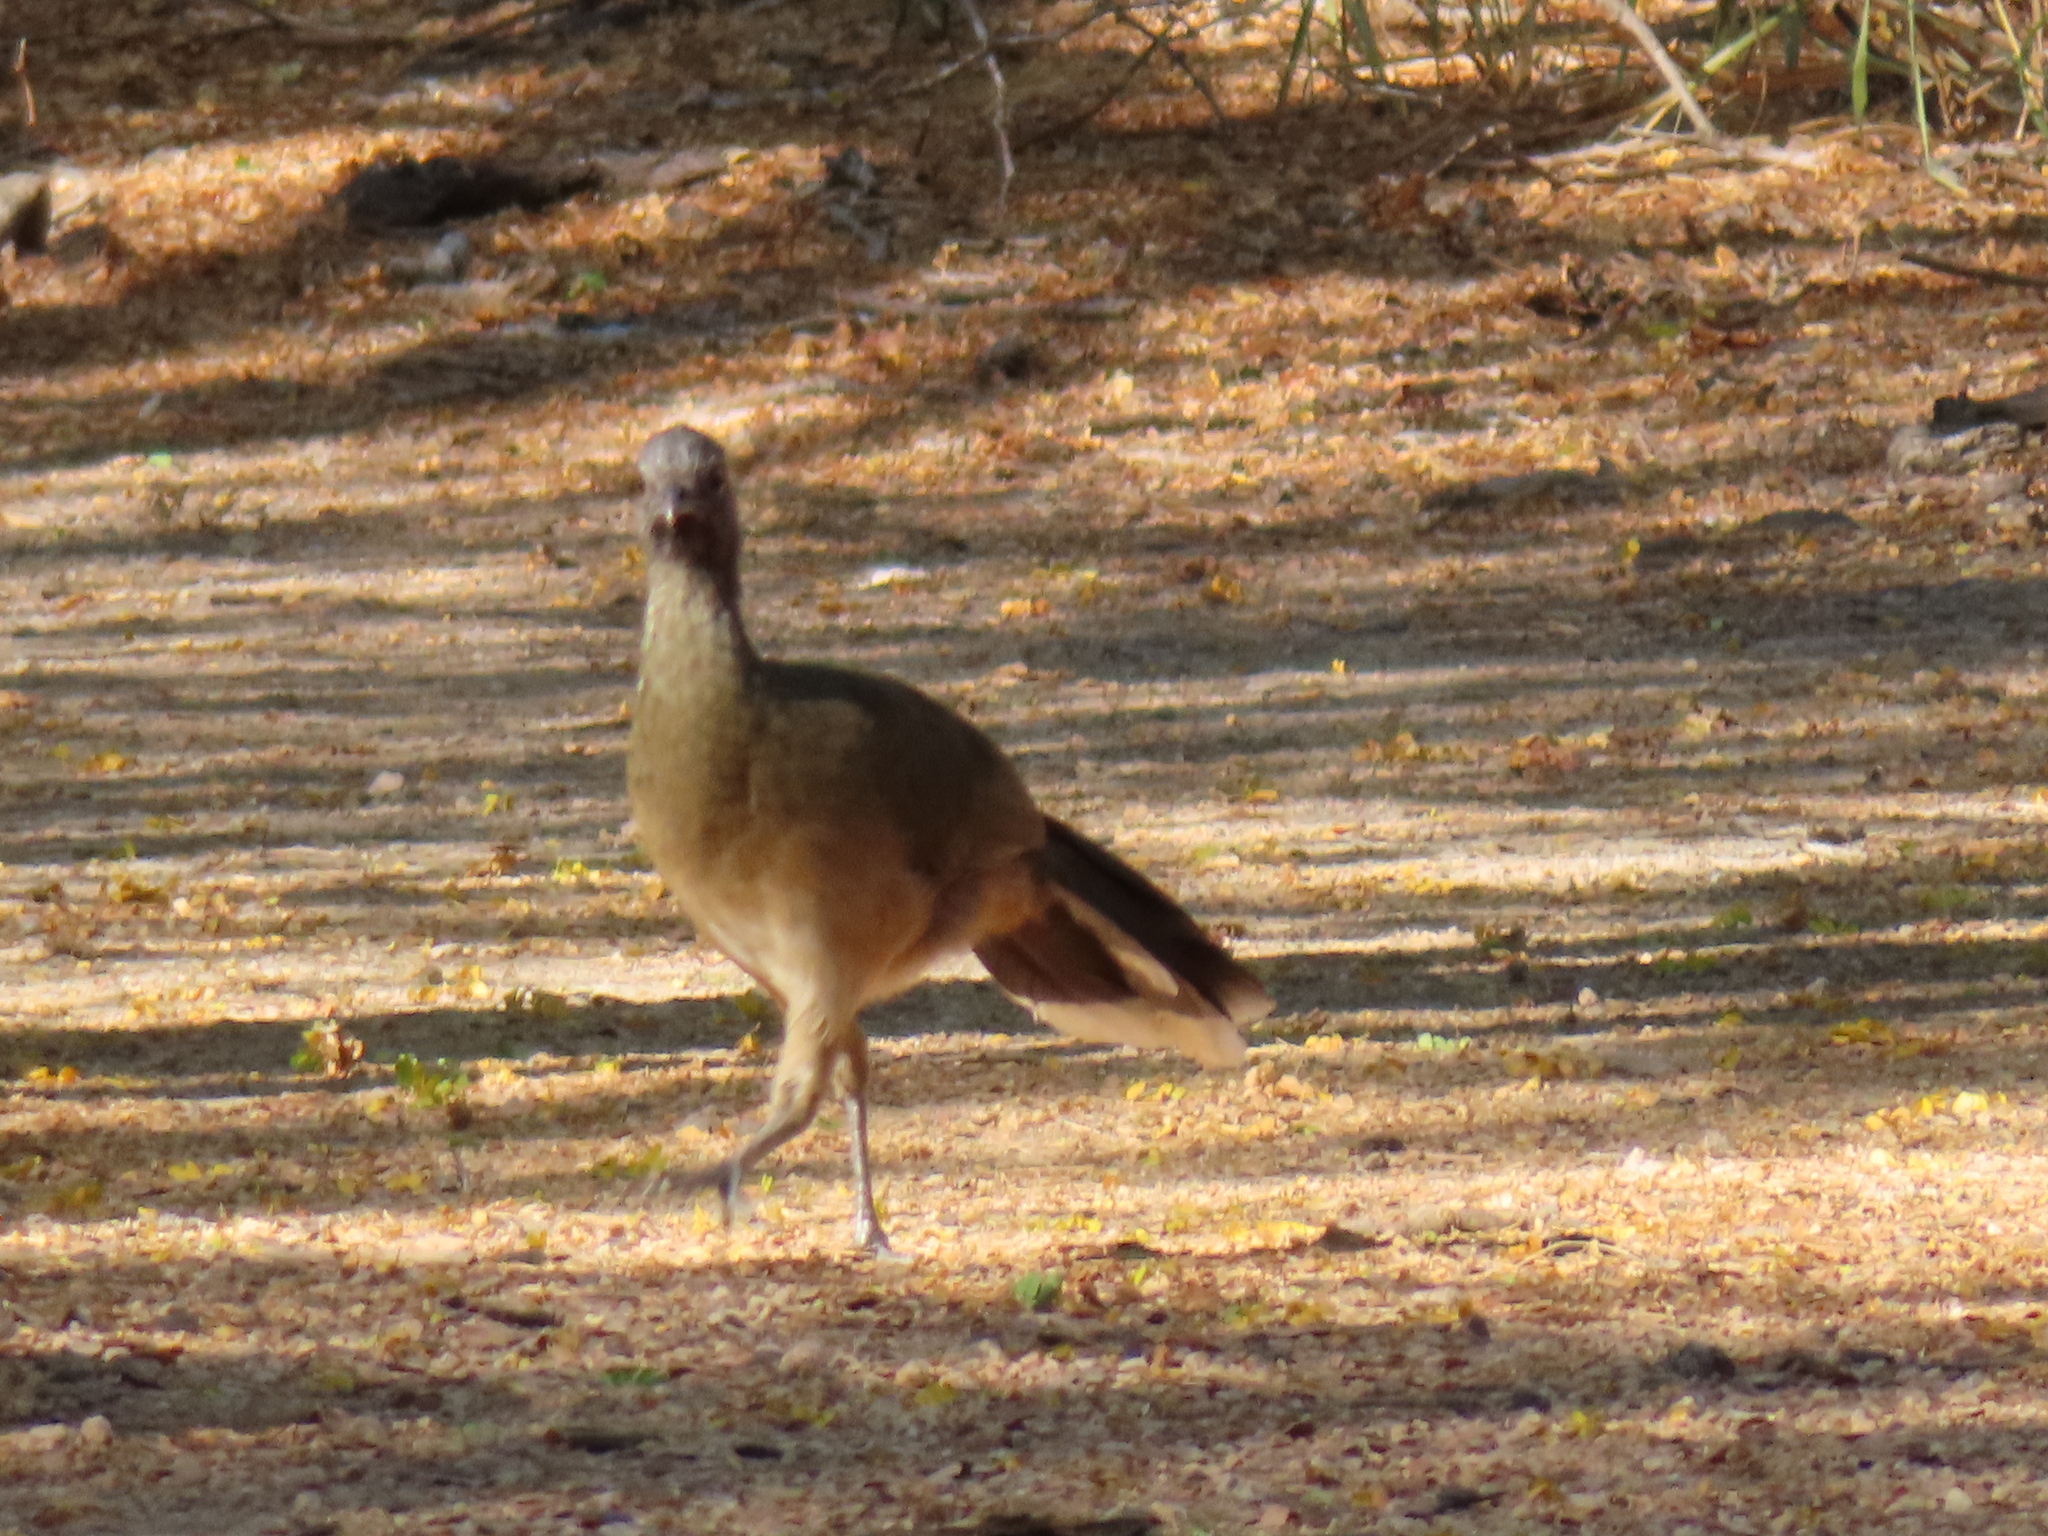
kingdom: Animalia
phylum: Chordata
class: Aves
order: Galliformes
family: Cracidae
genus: Ortalis
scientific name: Ortalis vetula
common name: Plain chachalaca
